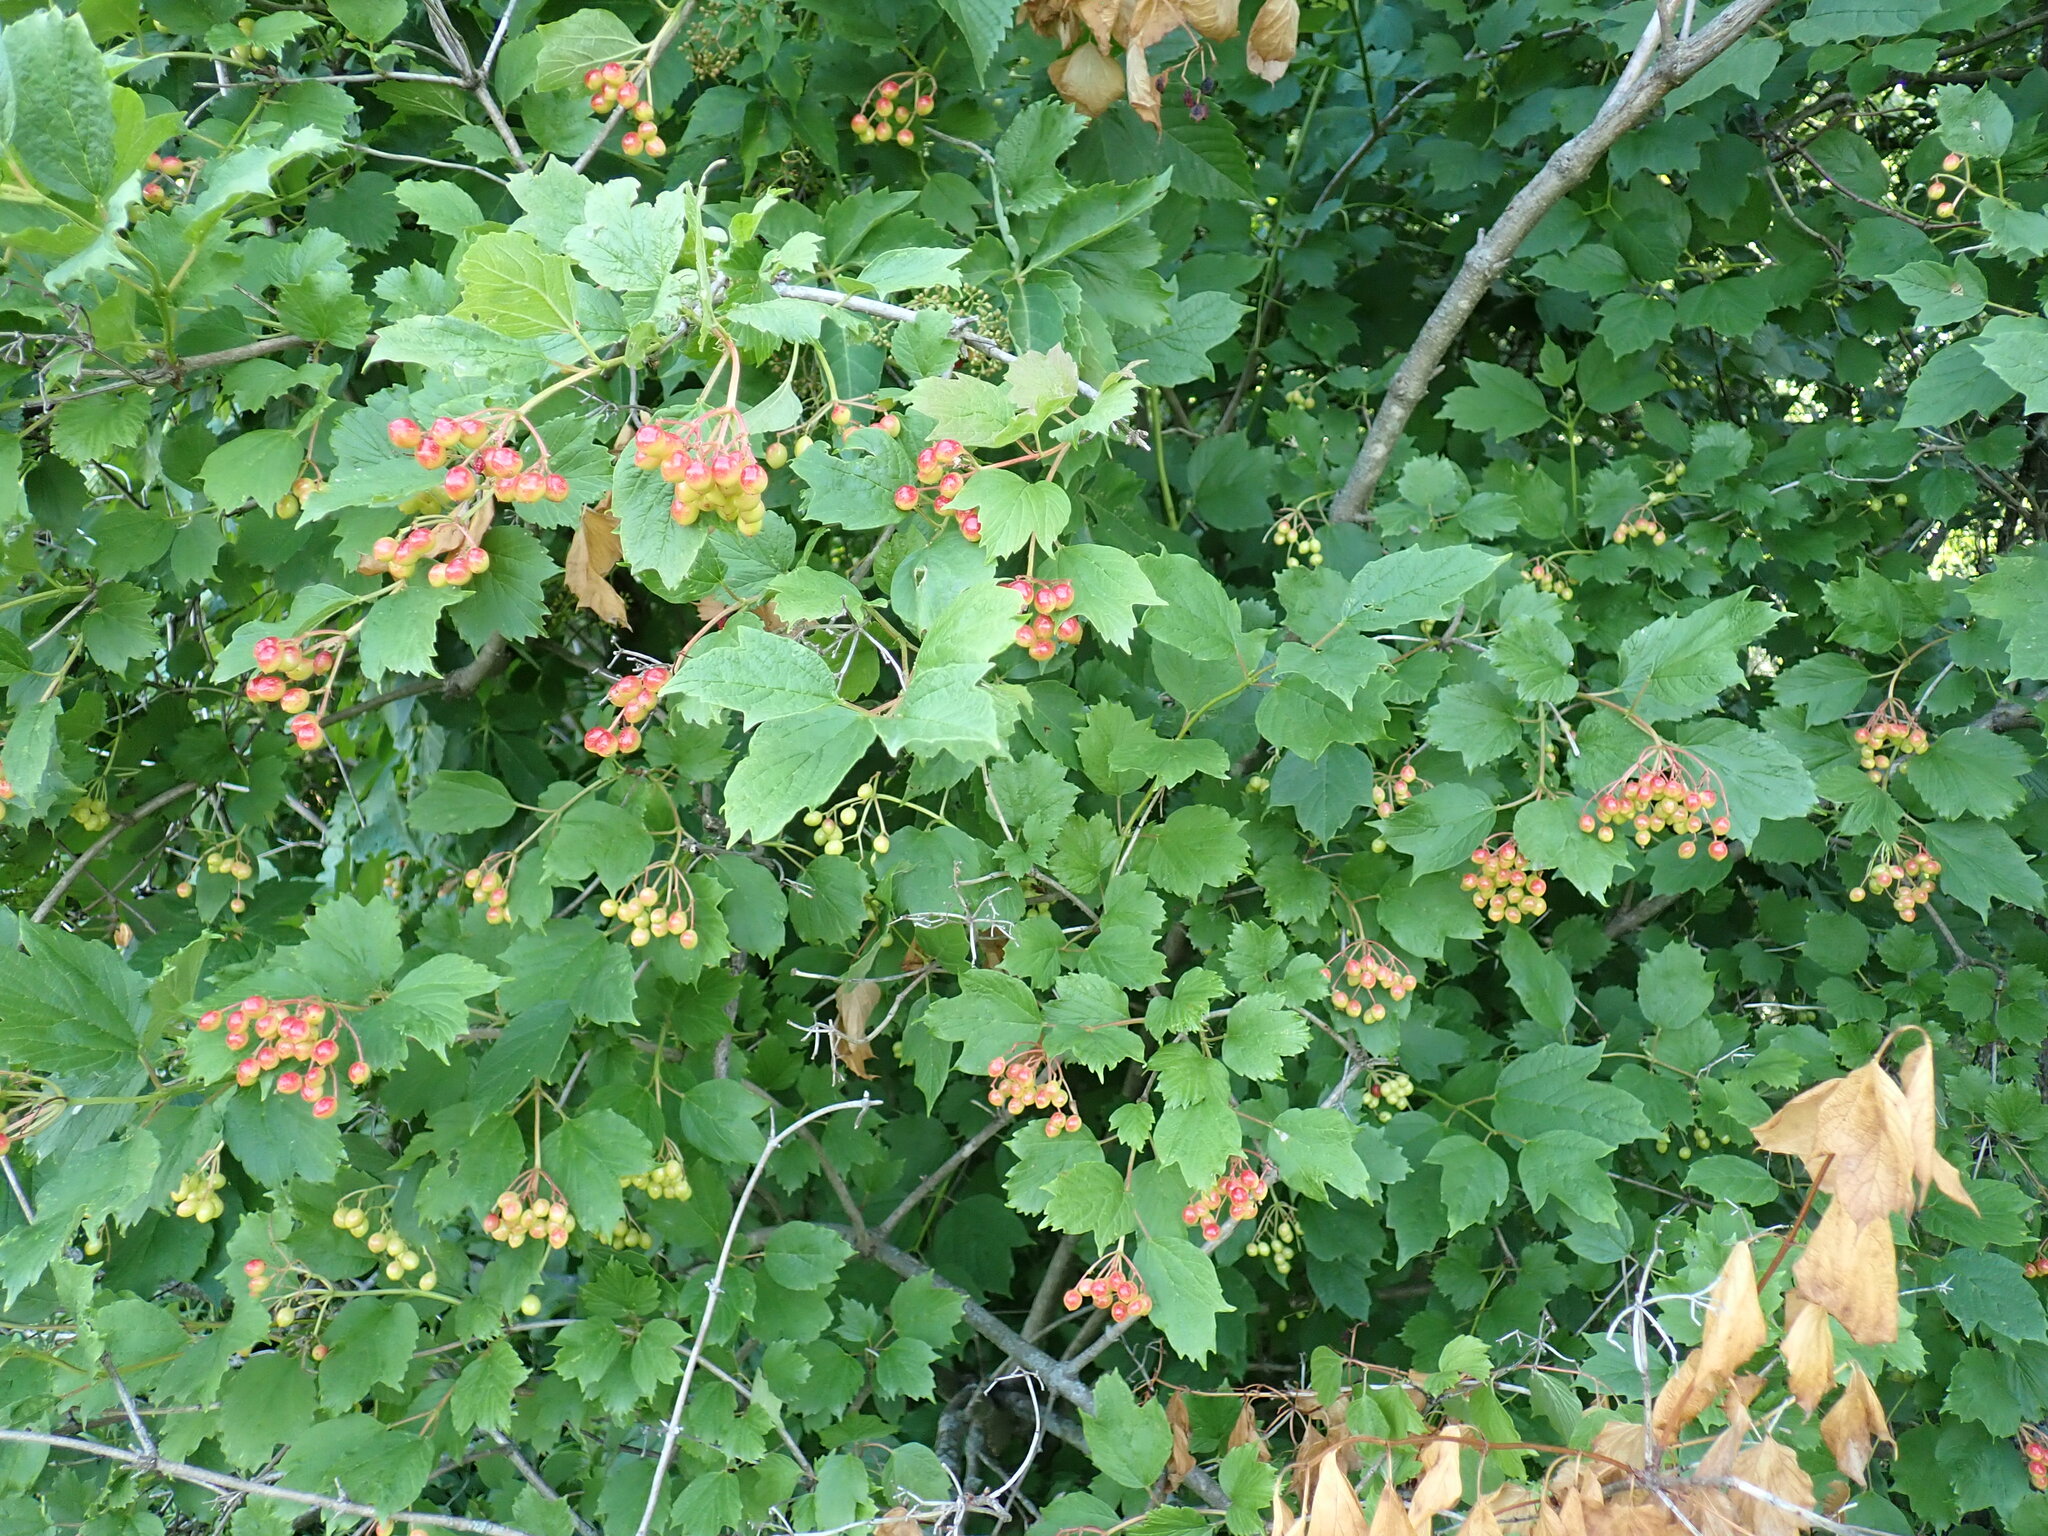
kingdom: Plantae
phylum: Tracheophyta
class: Magnoliopsida
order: Dipsacales
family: Viburnaceae
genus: Viburnum
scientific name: Viburnum opulus
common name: Guelder-rose
